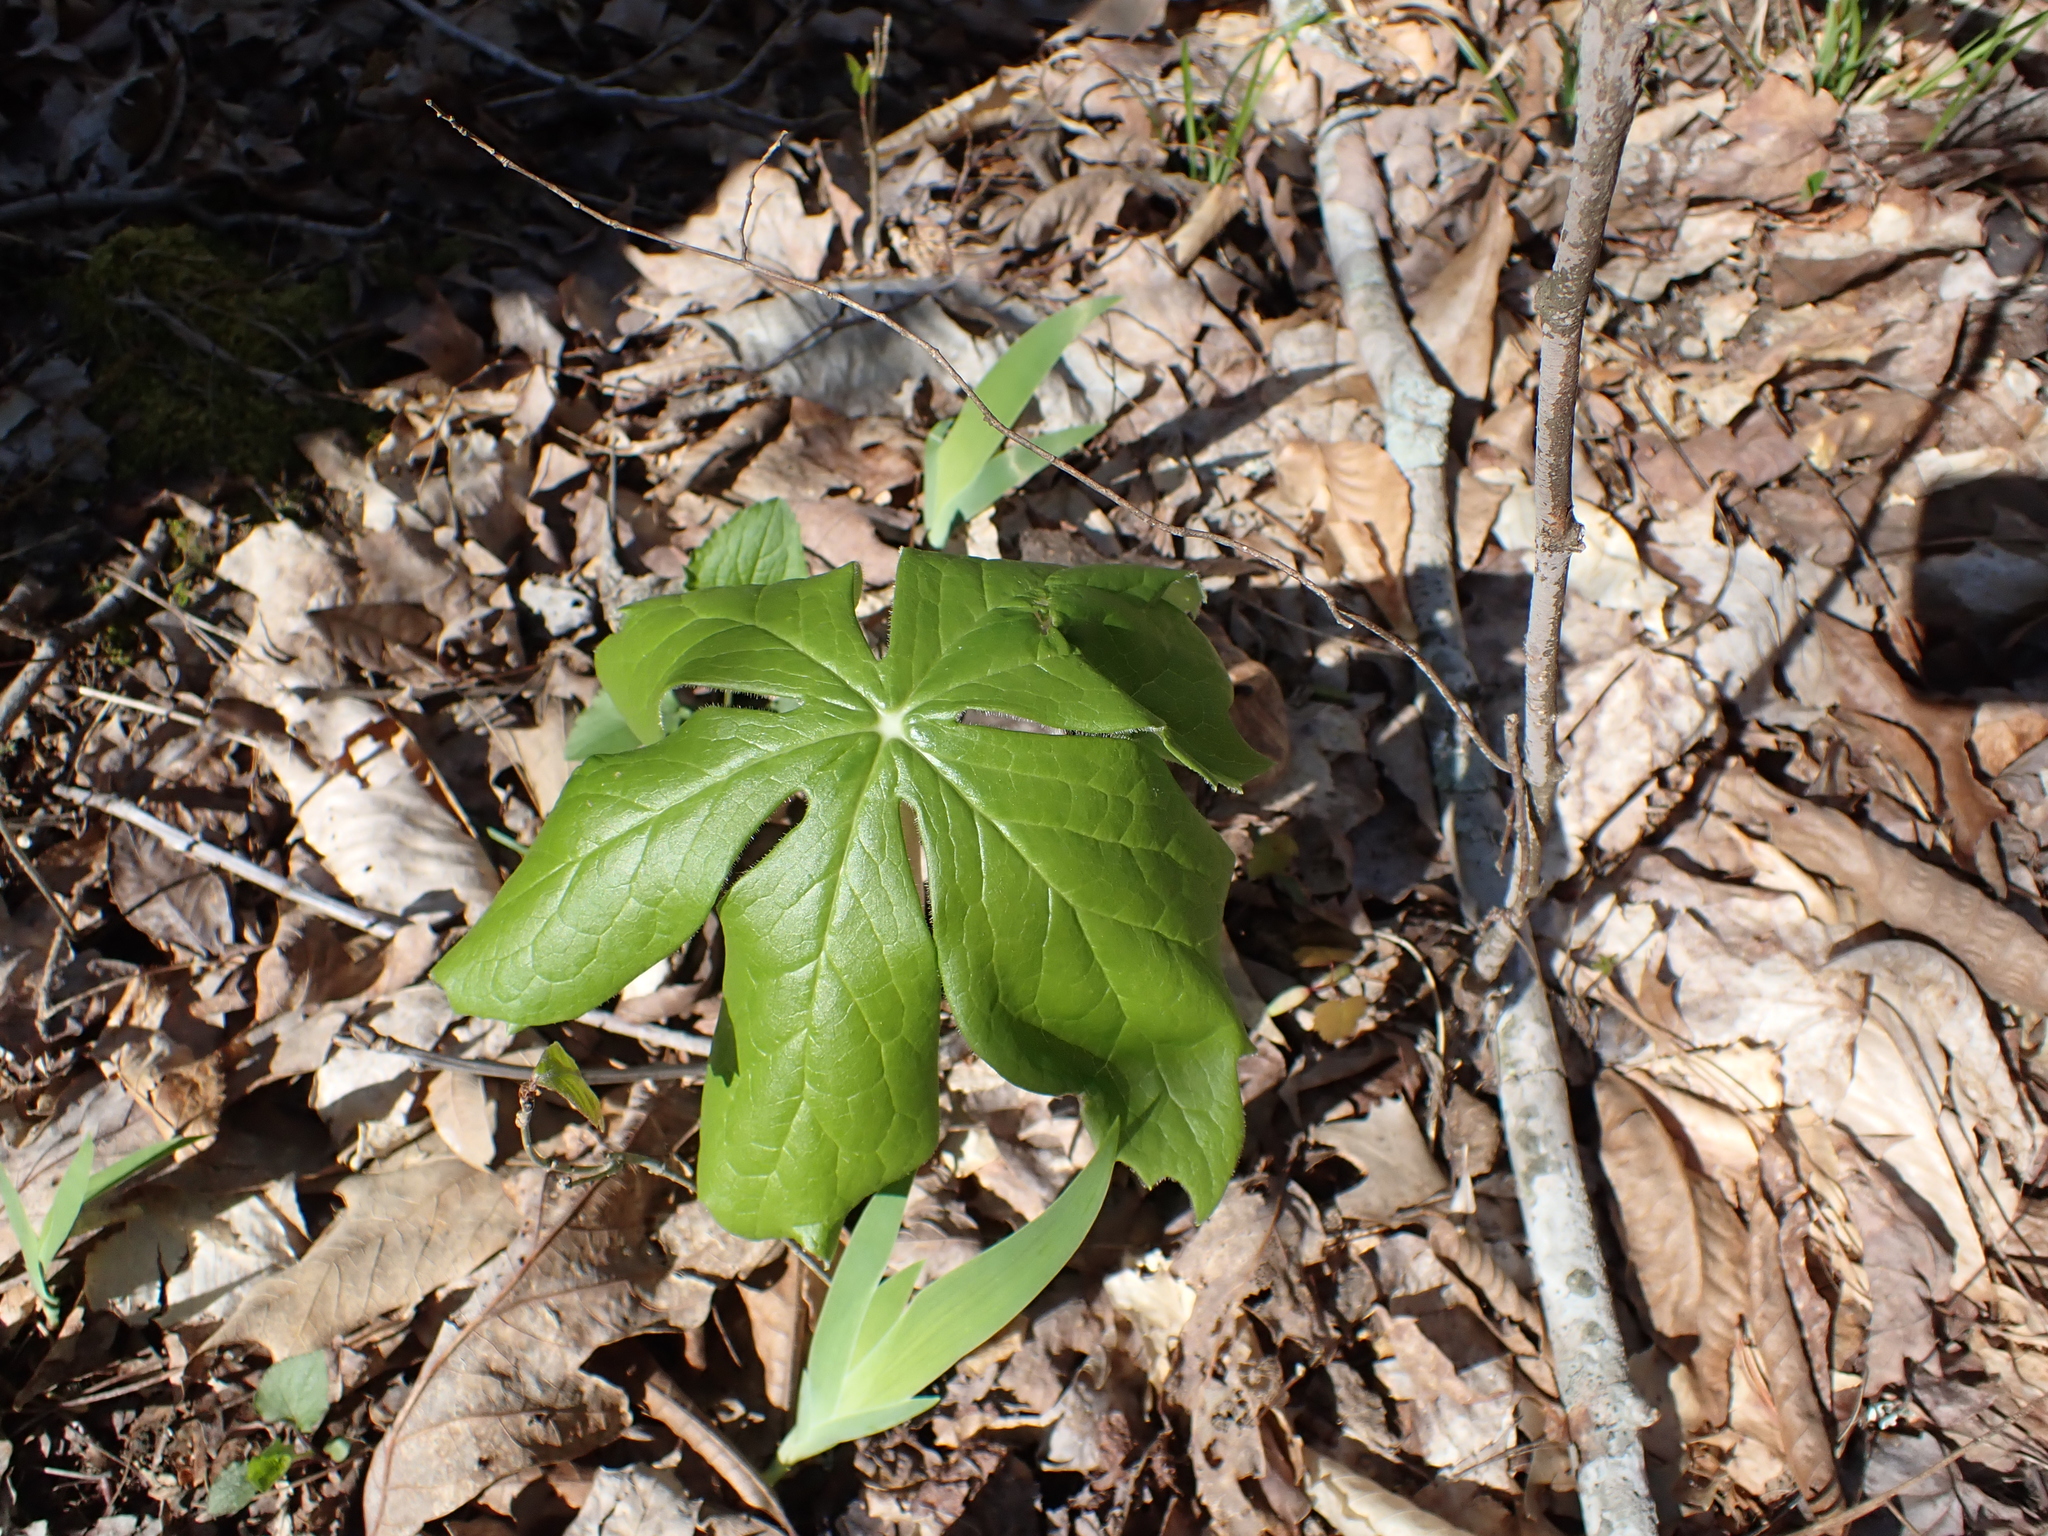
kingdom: Plantae
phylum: Tracheophyta
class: Magnoliopsida
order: Ranunculales
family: Berberidaceae
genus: Podophyllum
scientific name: Podophyllum peltatum
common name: Wild mandrake
